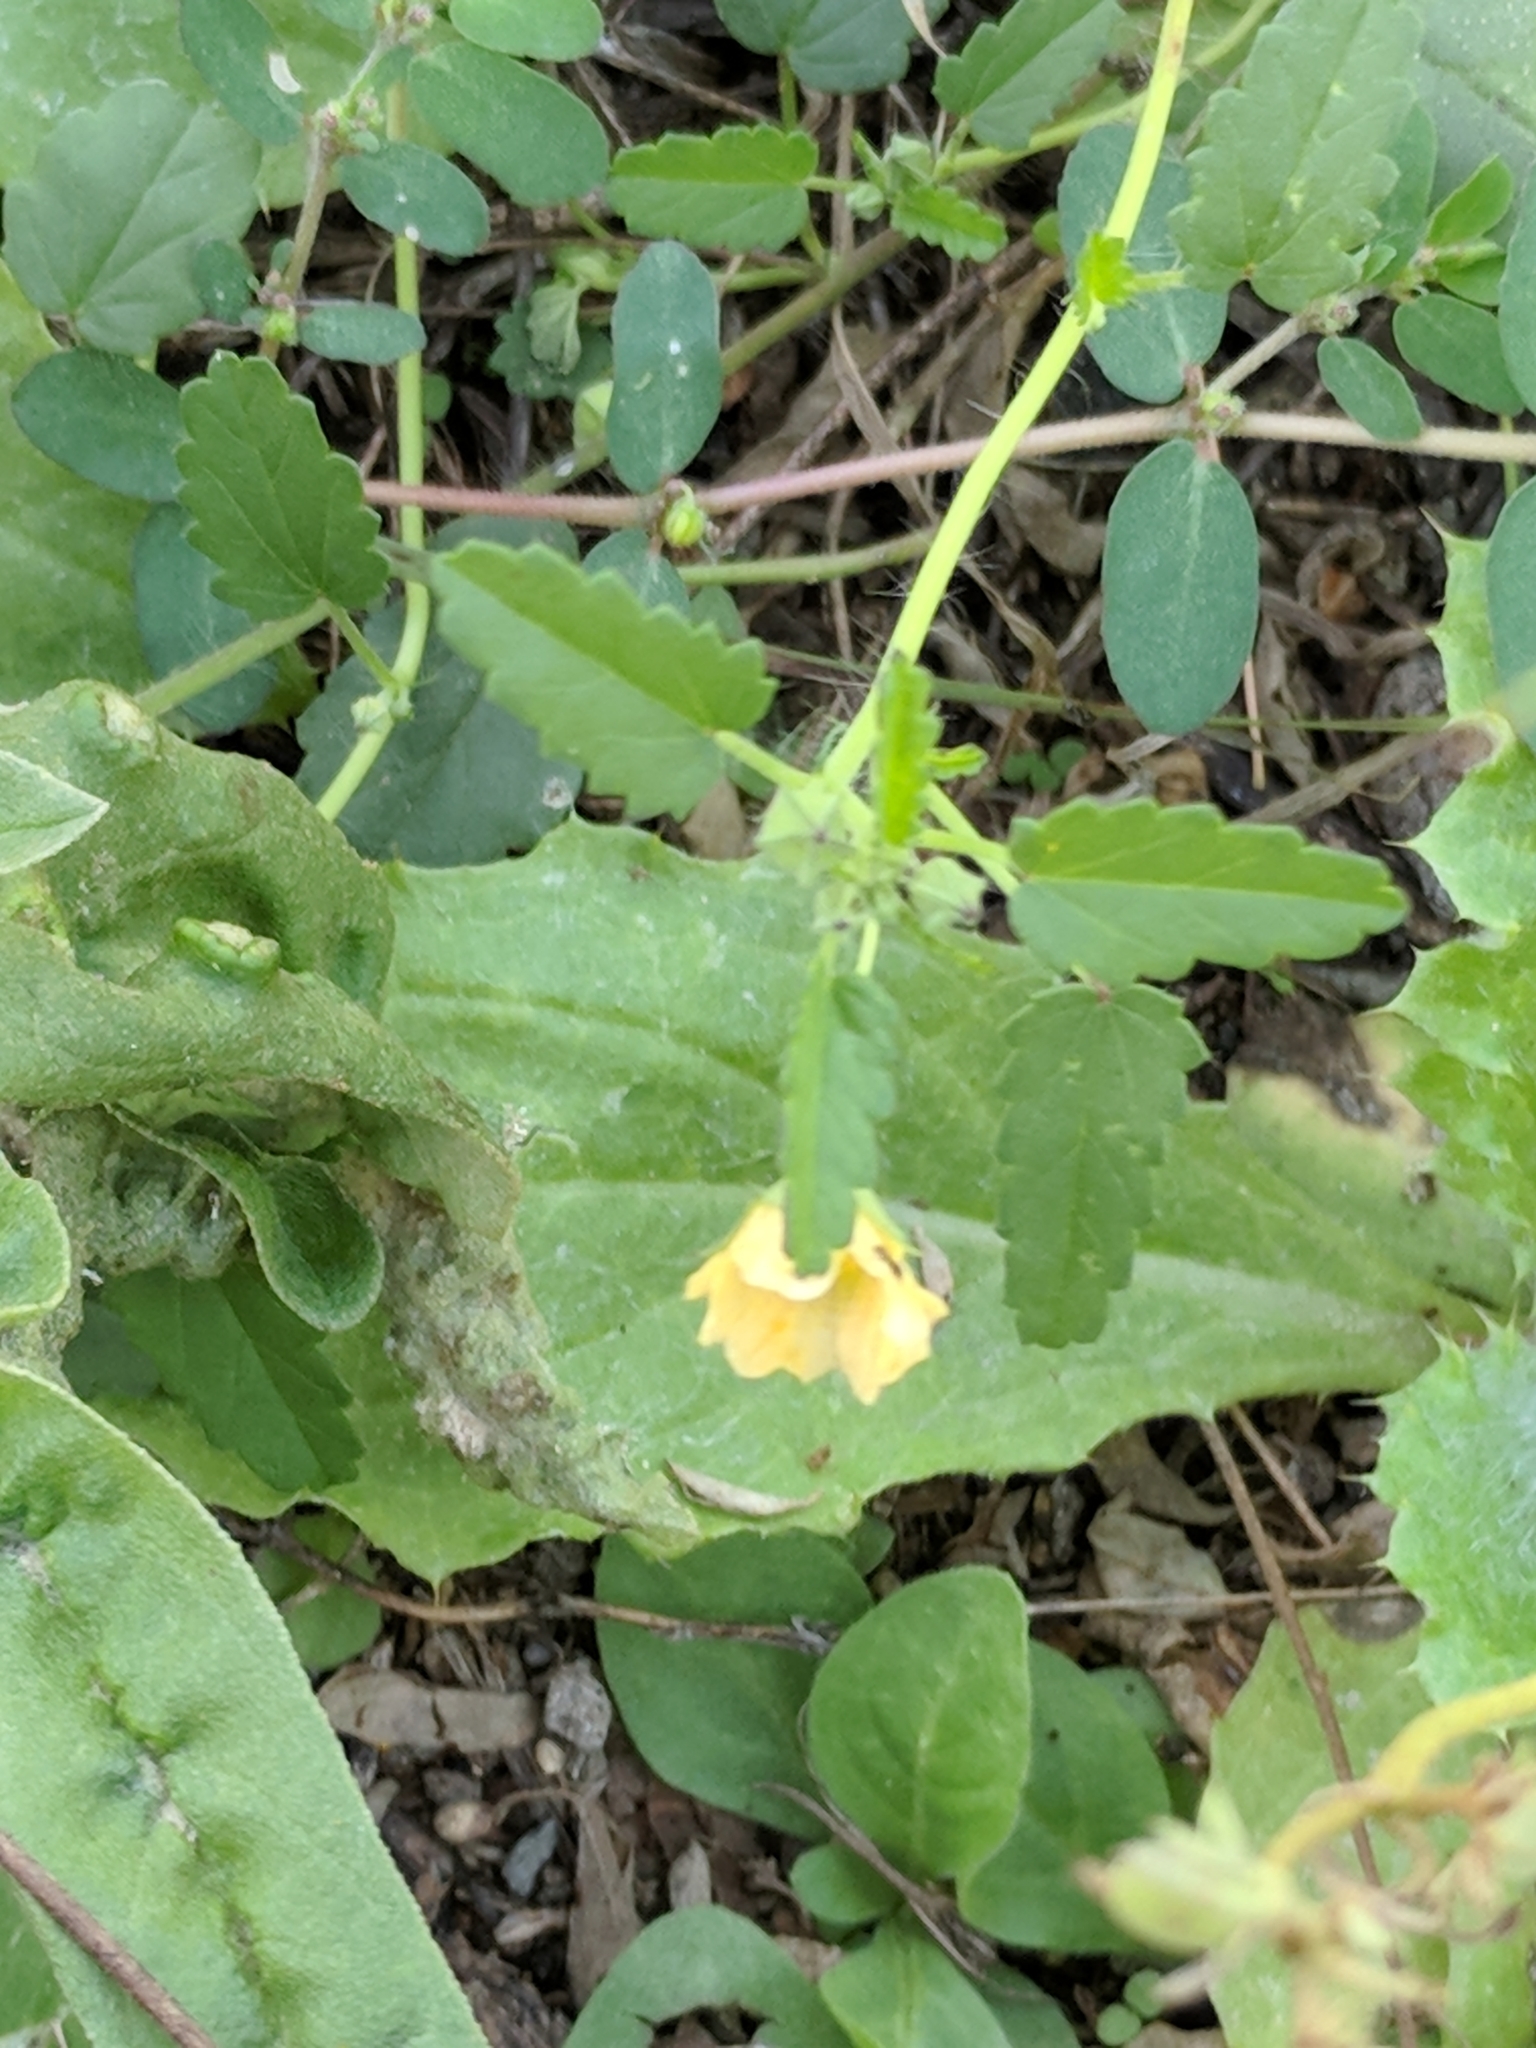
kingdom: Plantae
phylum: Tracheophyta
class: Magnoliopsida
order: Malvales
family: Malvaceae
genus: Sida
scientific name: Sida abutilifolia
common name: Spreading fanpetals
